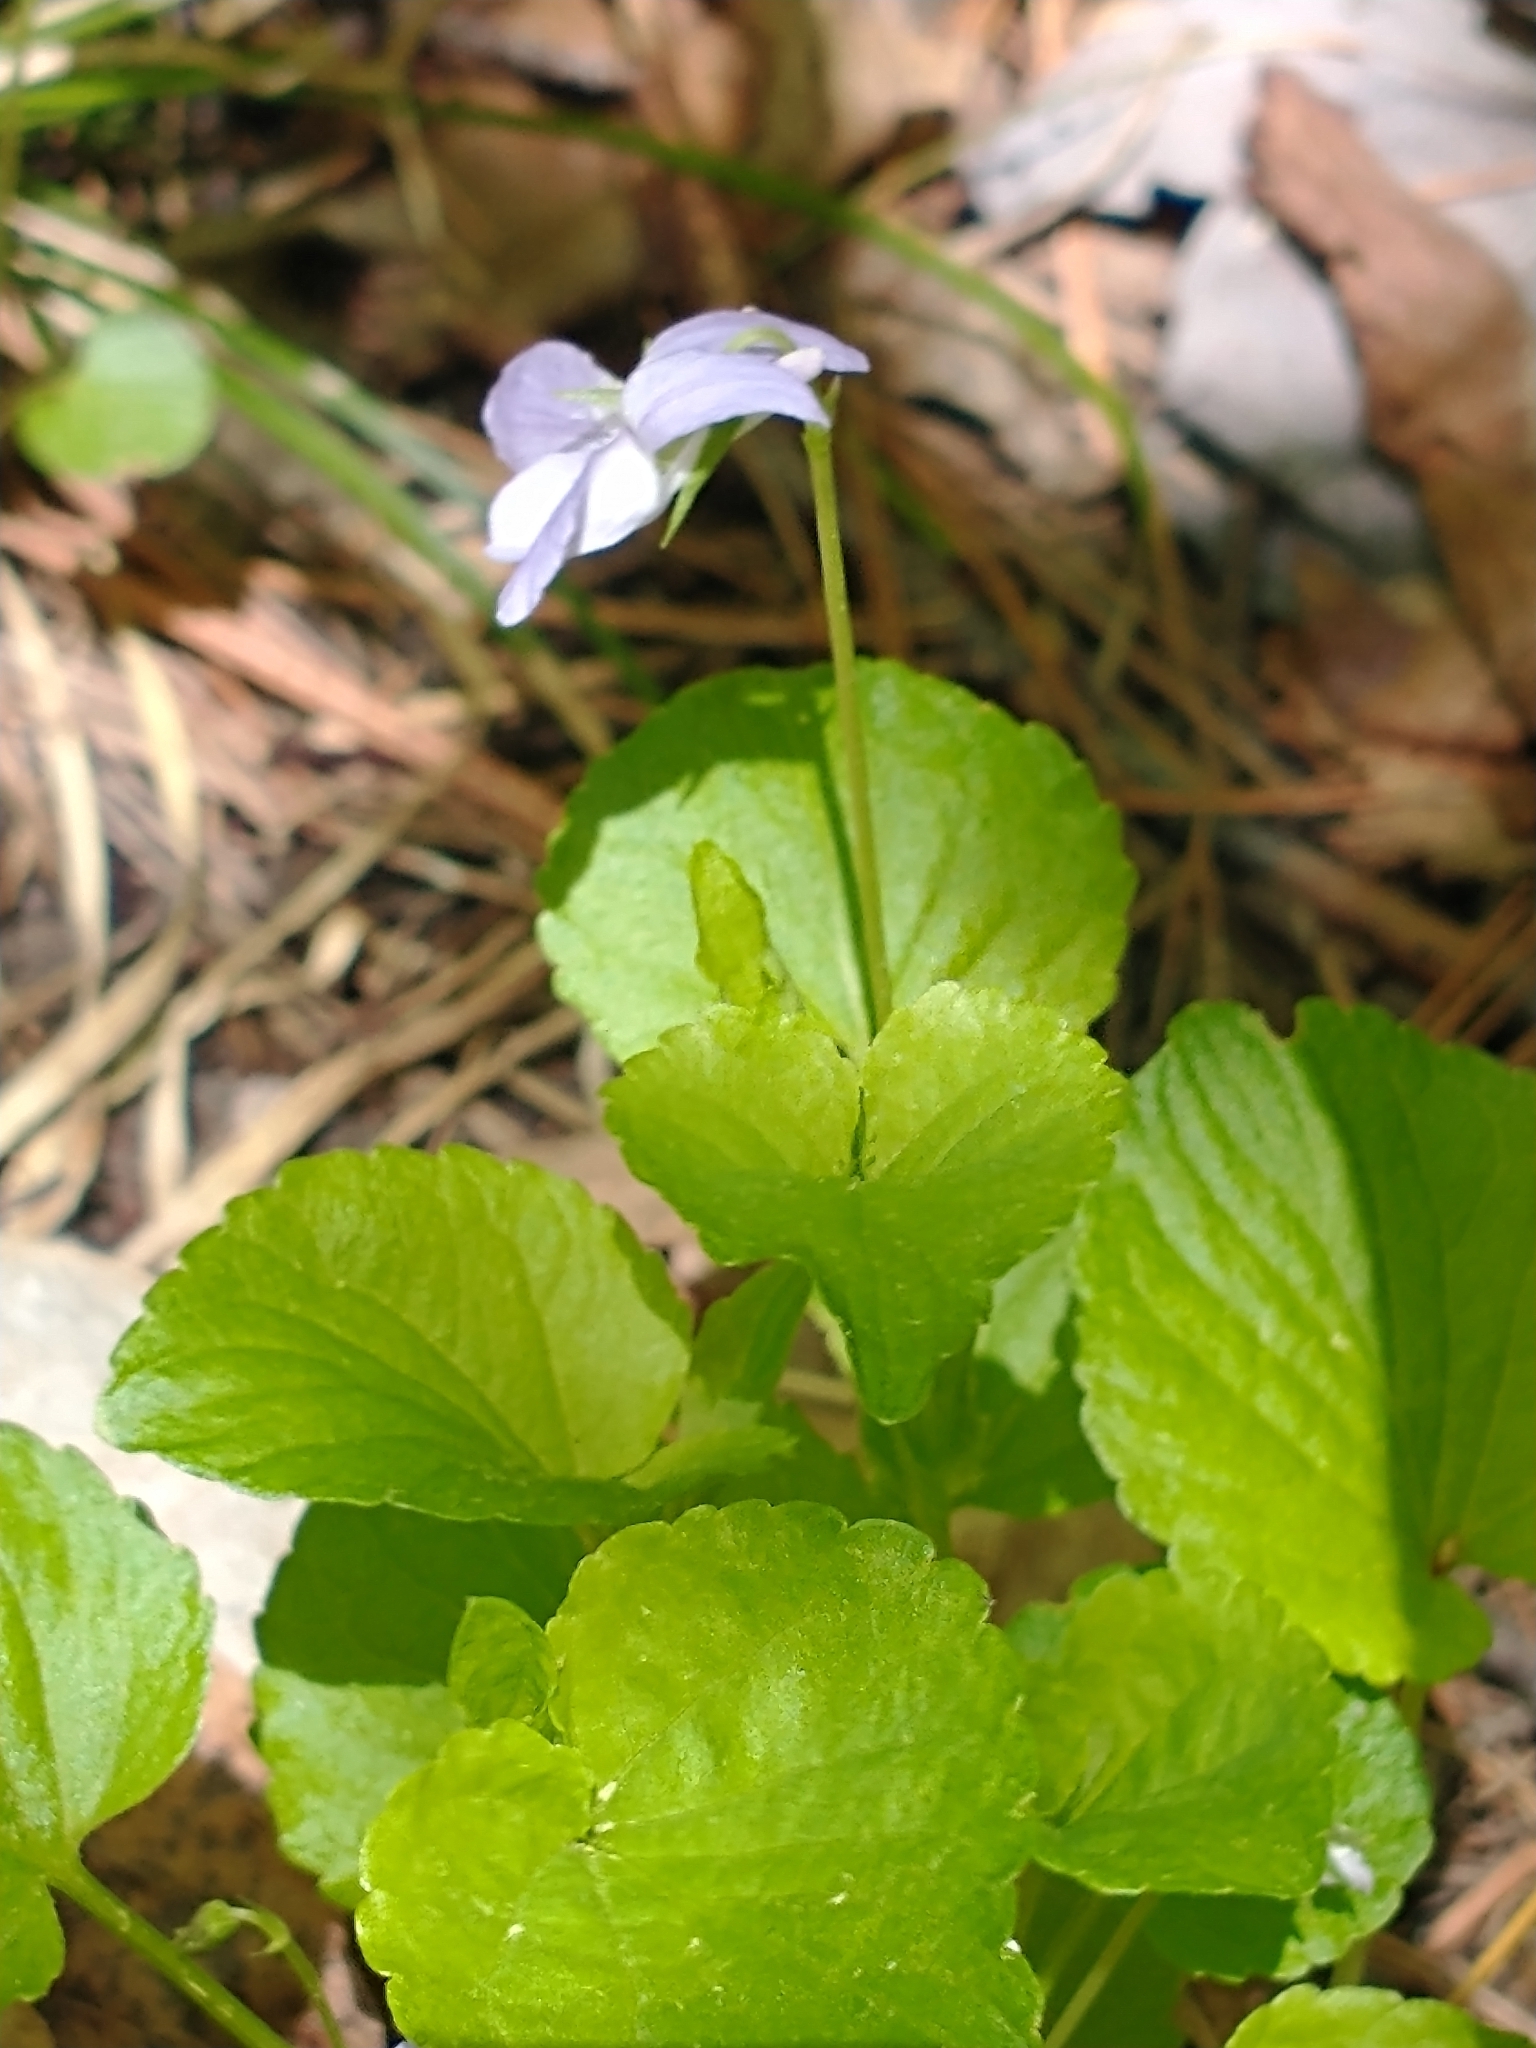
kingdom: Plantae
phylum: Tracheophyta
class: Magnoliopsida
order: Malpighiales
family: Violaceae
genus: Viola
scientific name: Viola labradorica
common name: Labrador violet
